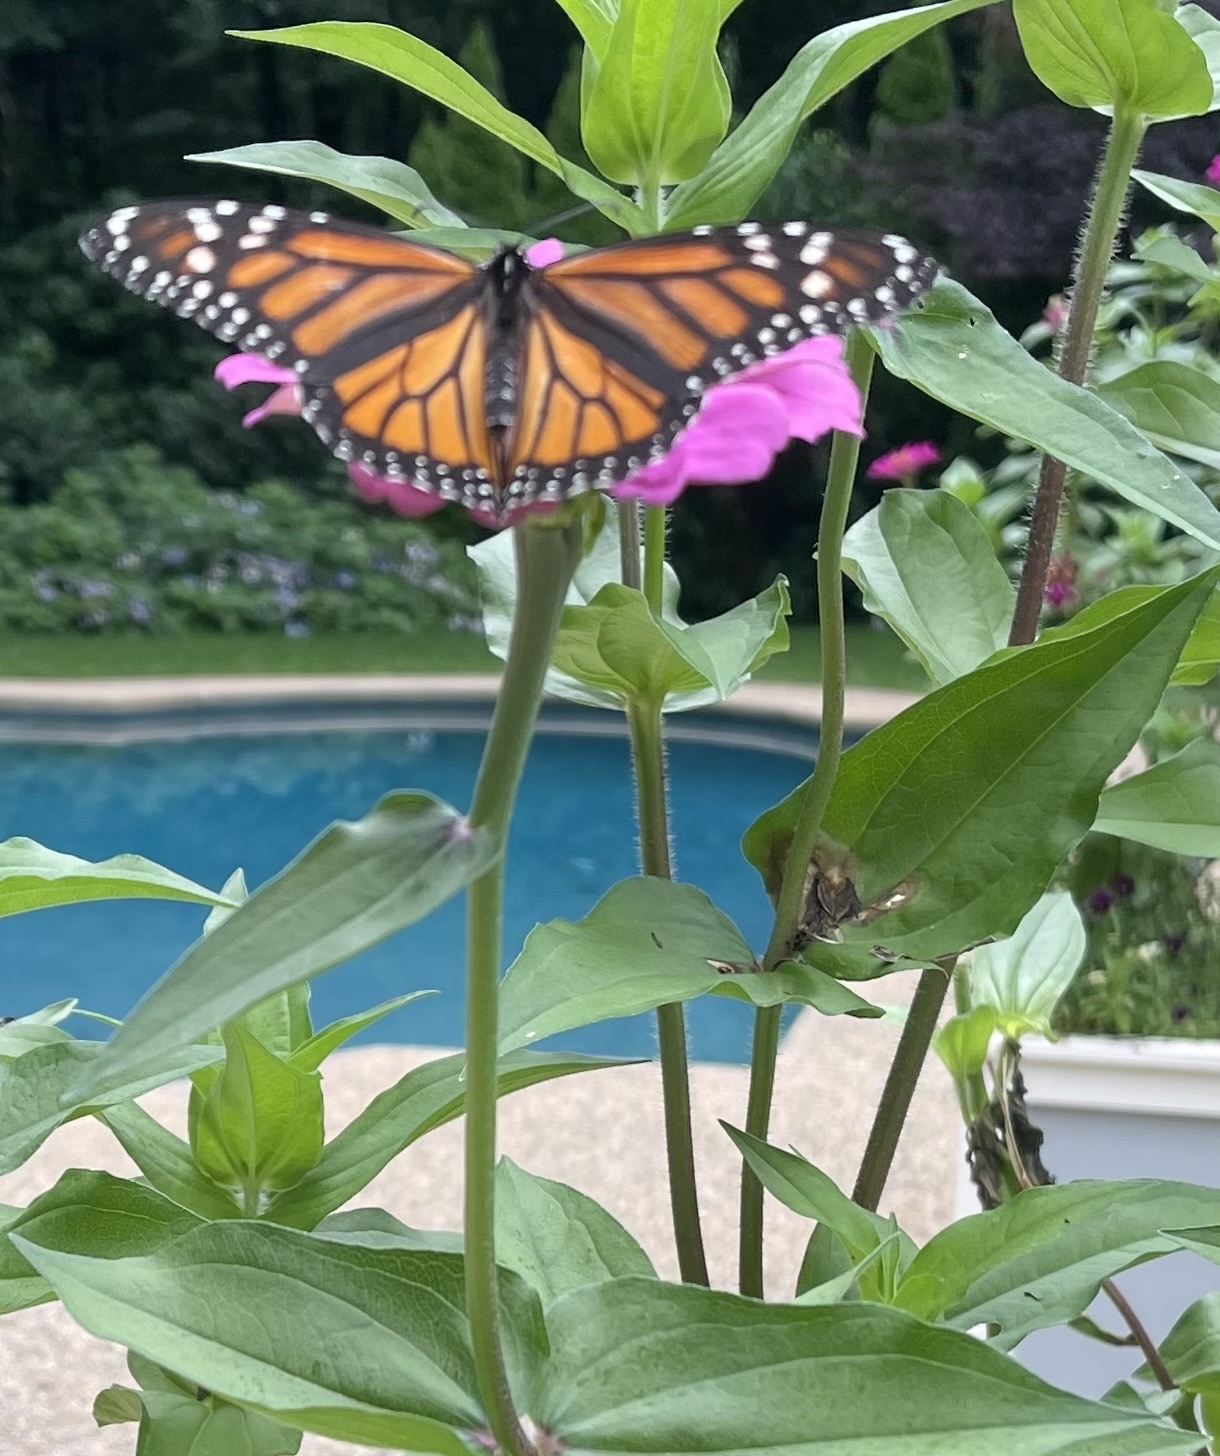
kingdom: Animalia
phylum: Arthropoda
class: Insecta
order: Lepidoptera
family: Nymphalidae
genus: Danaus
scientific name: Danaus plexippus
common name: Monarch
